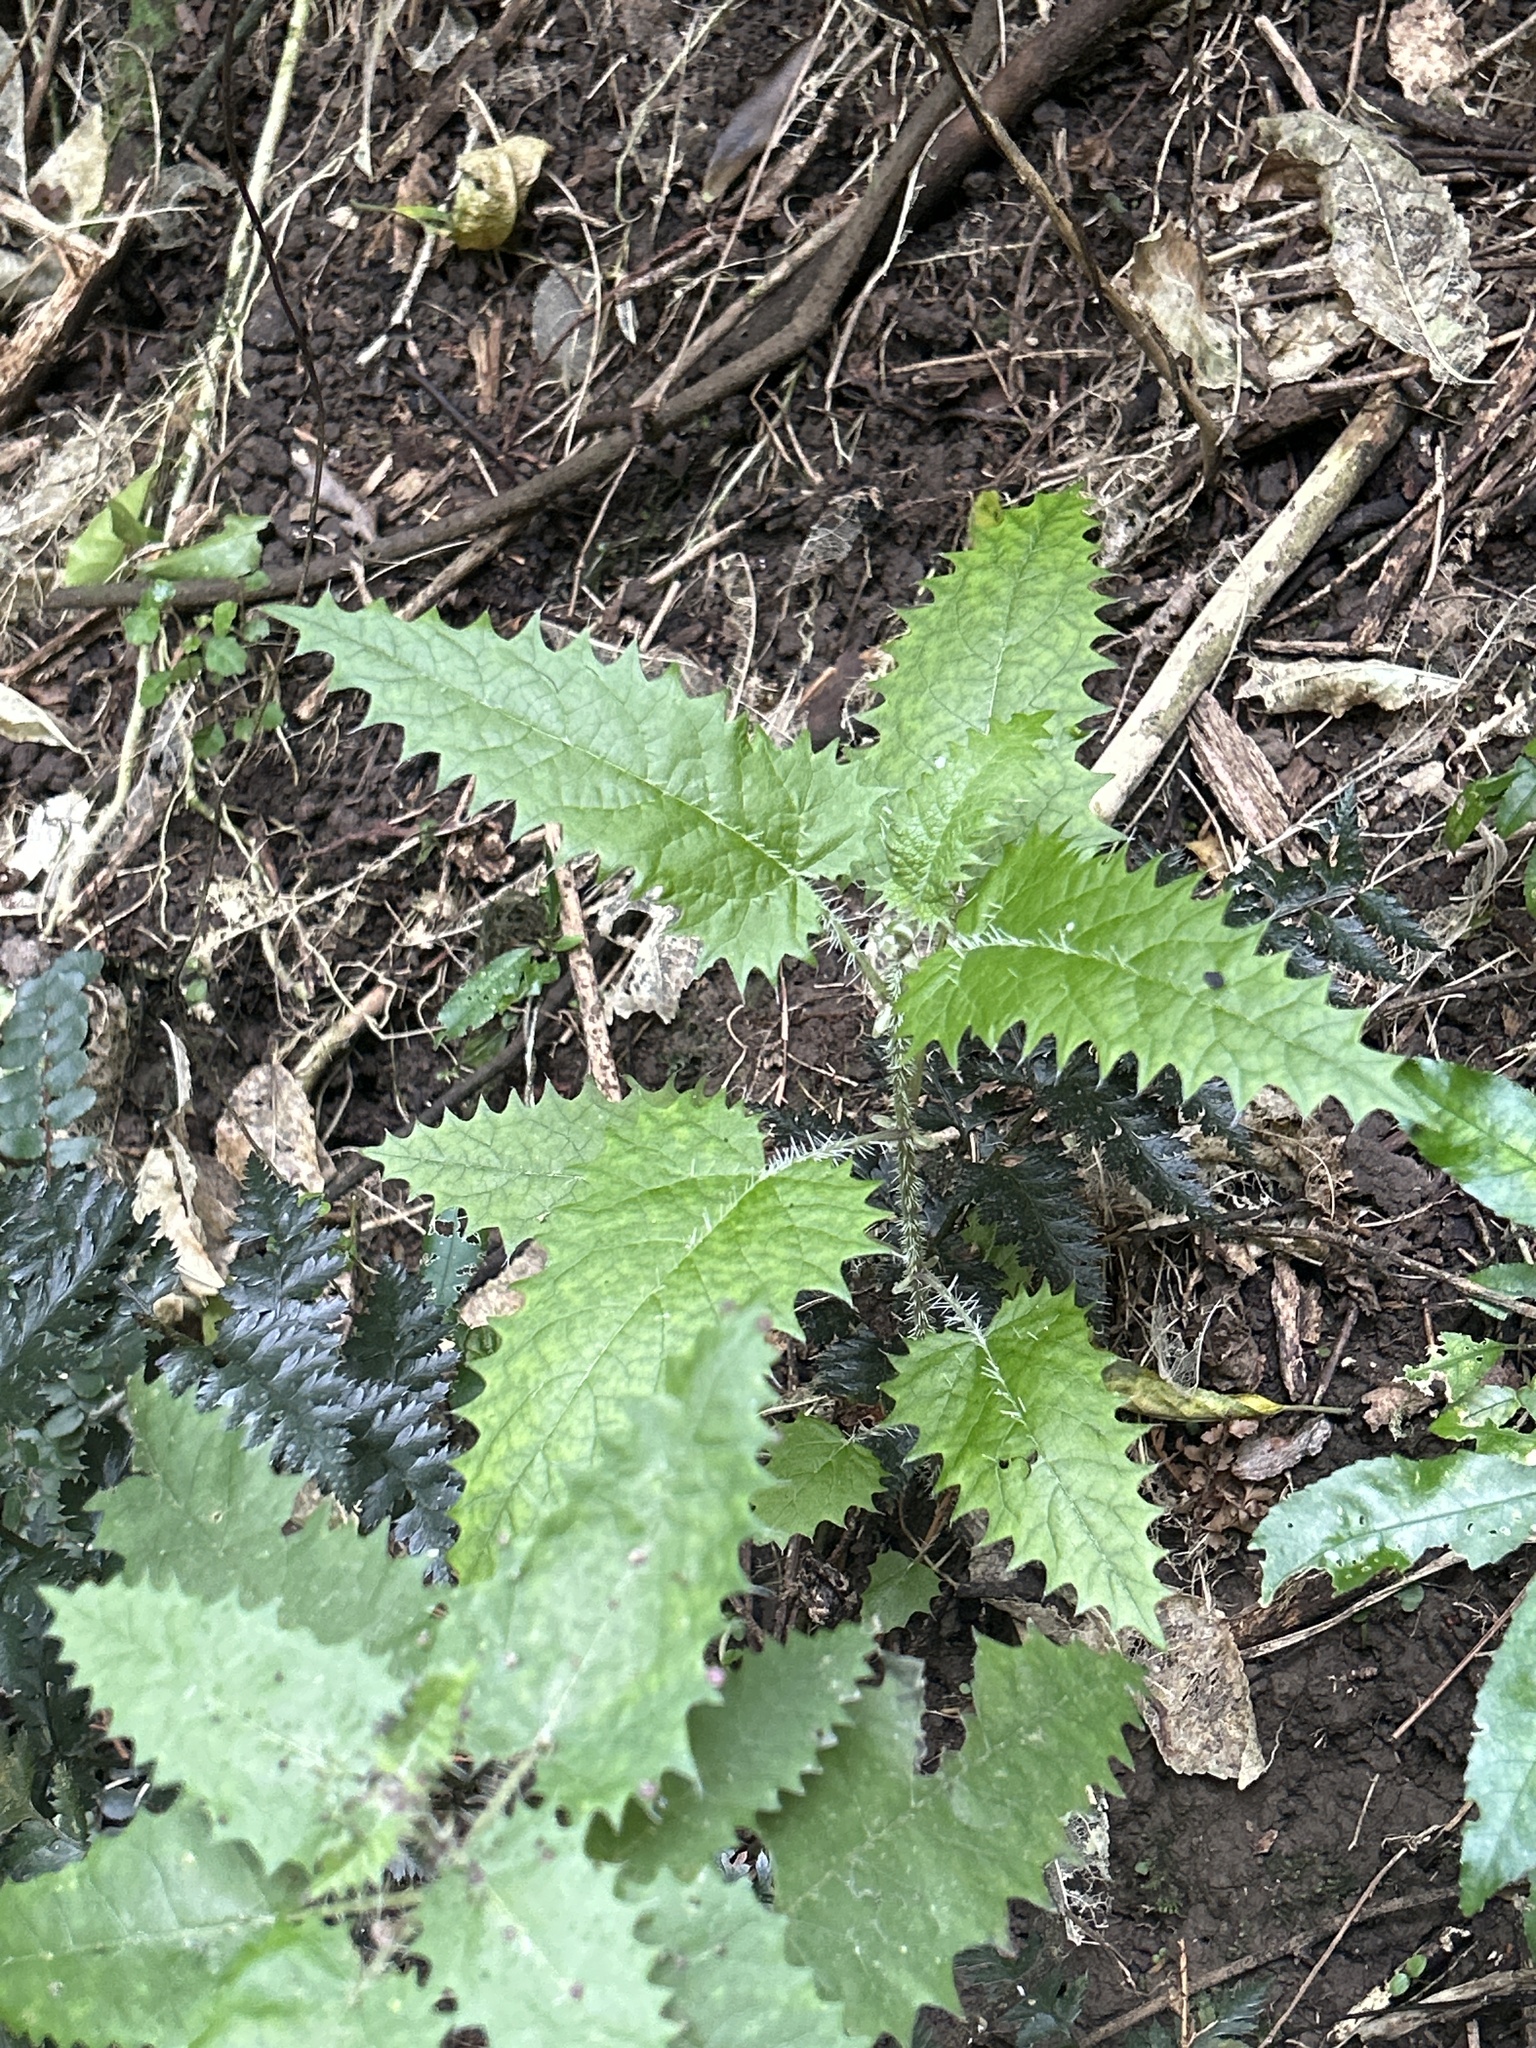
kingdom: Plantae
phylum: Tracheophyta
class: Magnoliopsida
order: Rosales
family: Urticaceae
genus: Urtica
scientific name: Urtica ferox
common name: Tree nettle
